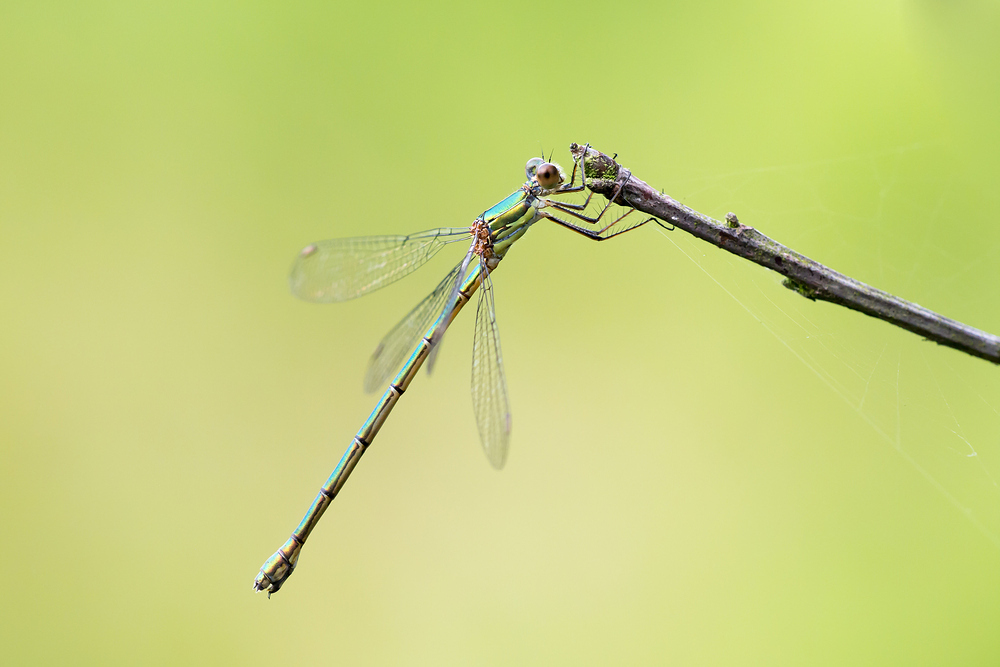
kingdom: Animalia
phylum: Arthropoda
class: Insecta
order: Odonata
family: Lestidae
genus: Chalcolestes
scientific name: Chalcolestes viridis
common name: Green emerald damselfly
